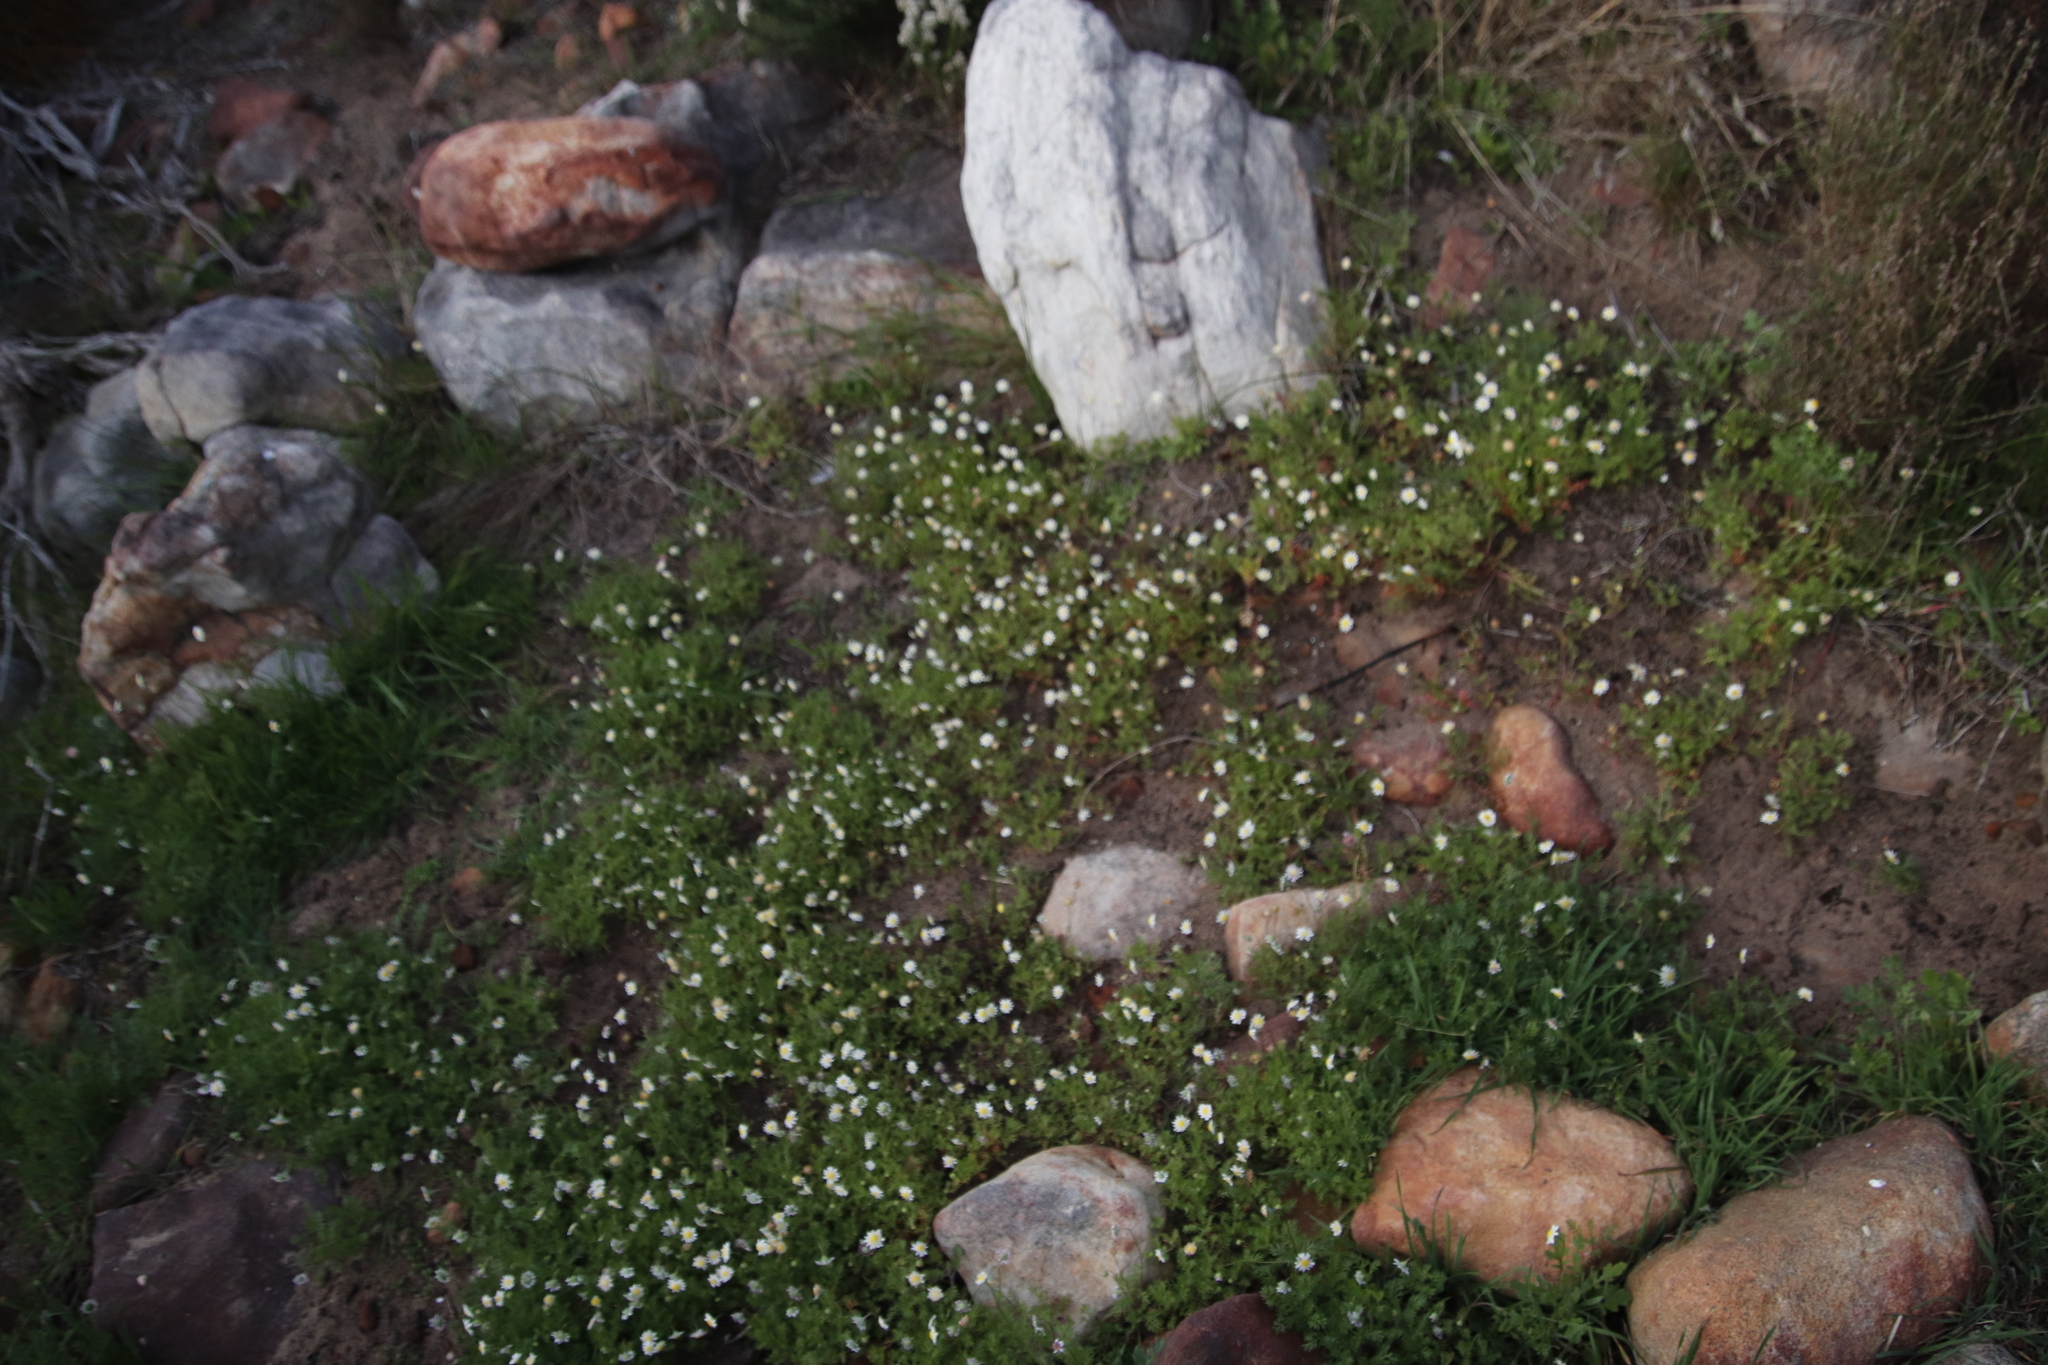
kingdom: Plantae
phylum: Tracheophyta
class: Magnoliopsida
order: Asterales
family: Asteraceae
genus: Cotula
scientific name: Cotula turbinata
